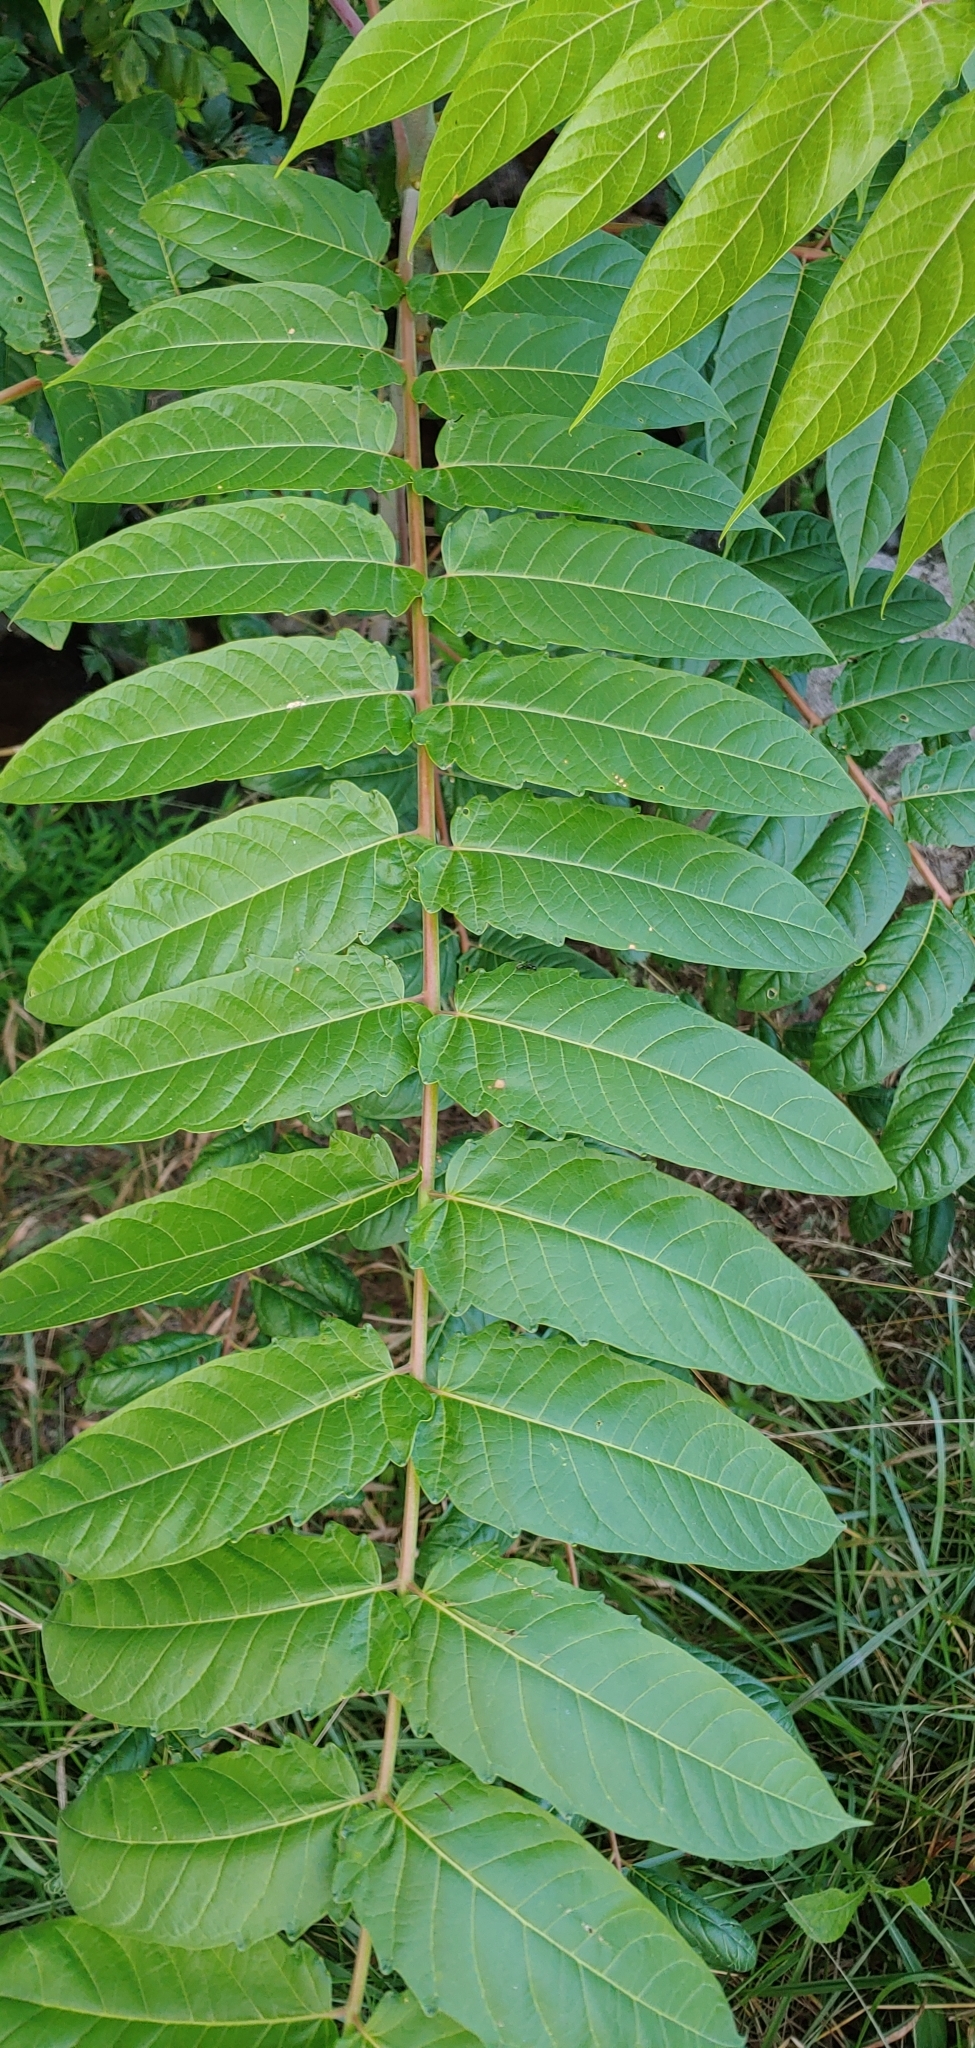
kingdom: Plantae
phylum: Tracheophyta
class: Magnoliopsida
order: Sapindales
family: Simaroubaceae
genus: Ailanthus
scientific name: Ailanthus altissima
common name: Tree-of-heaven
